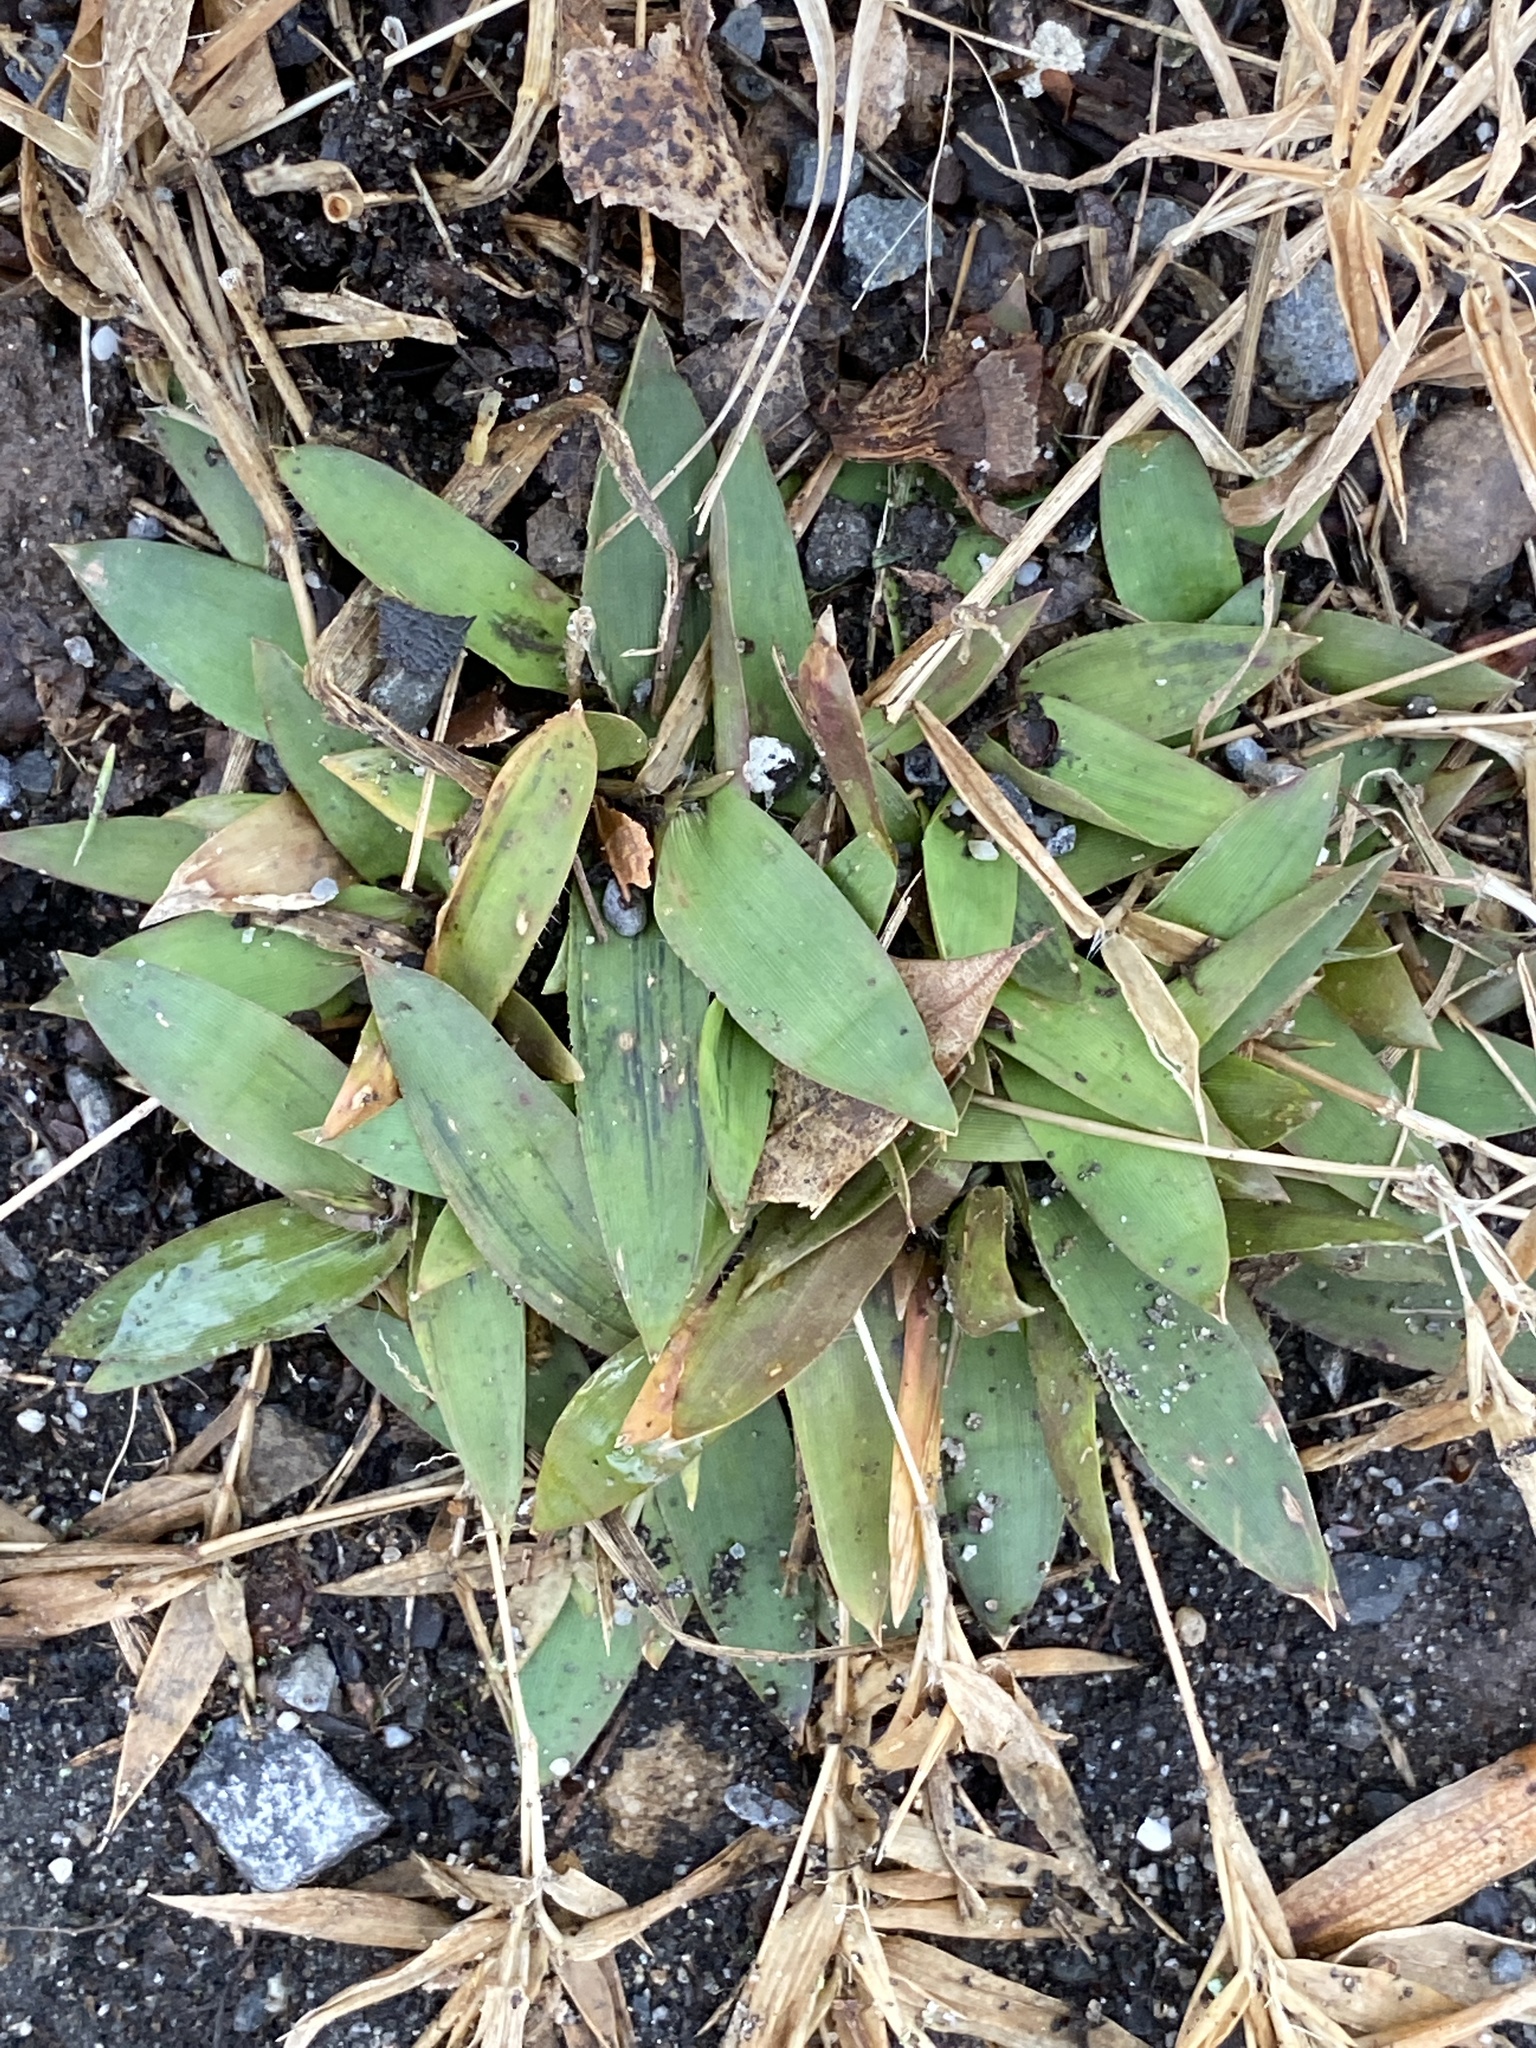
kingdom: Plantae
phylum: Tracheophyta
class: Liliopsida
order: Poales
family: Poaceae
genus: Dichanthelium
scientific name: Dichanthelium clandestinum
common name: Deer-tongue grass
